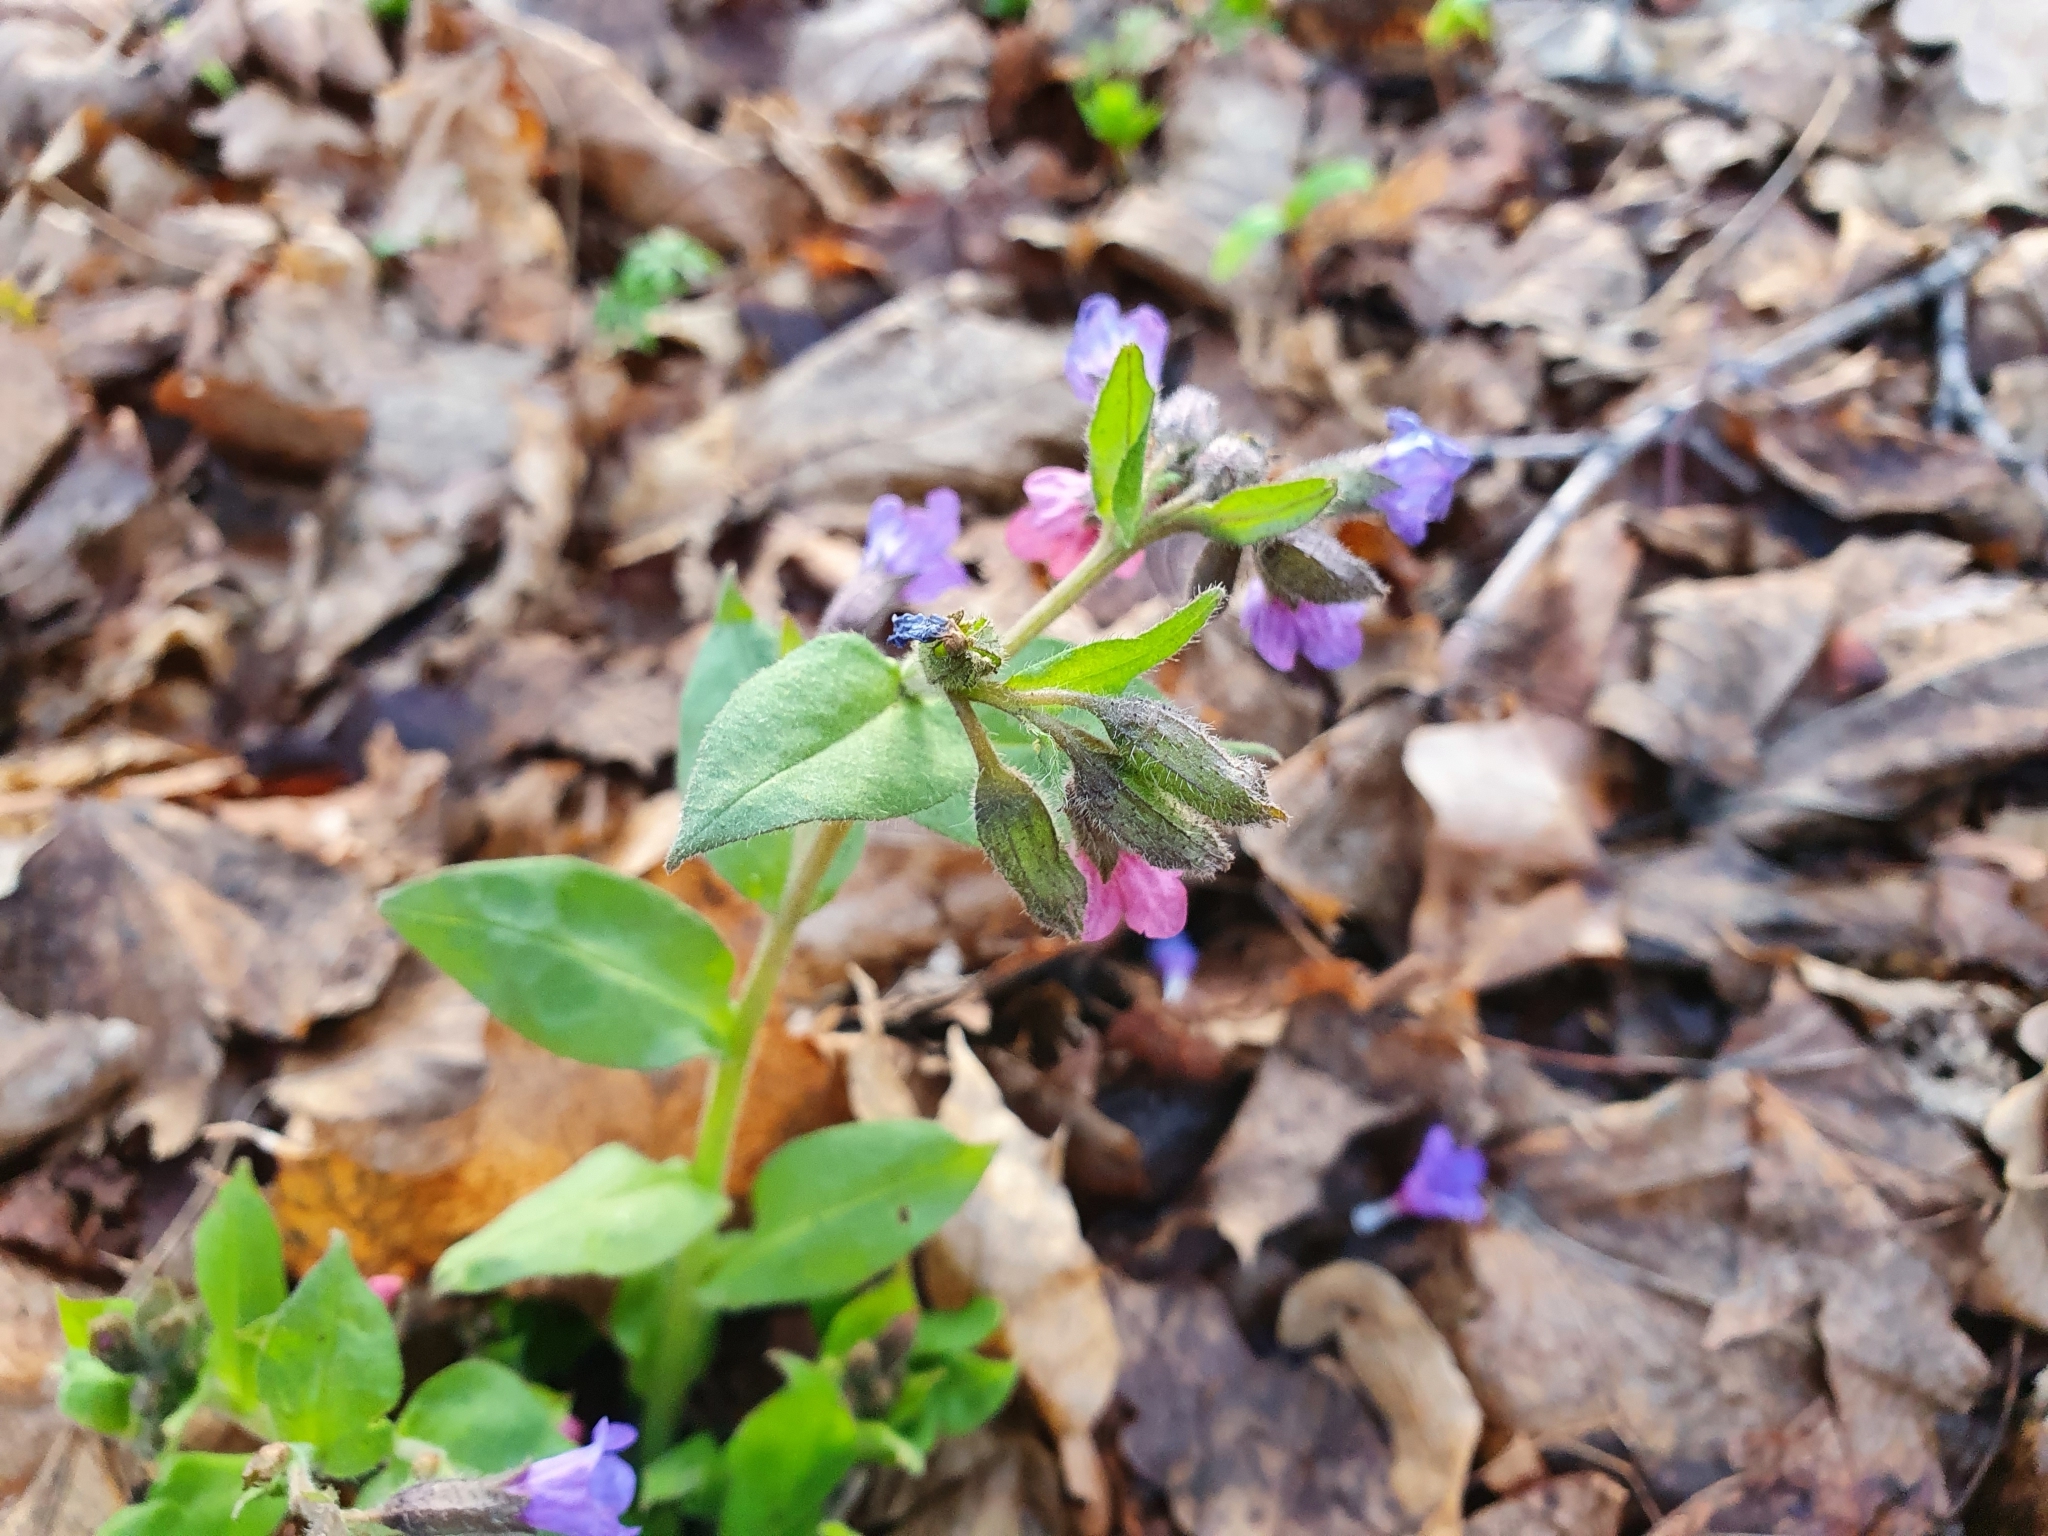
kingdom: Plantae
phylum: Tracheophyta
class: Magnoliopsida
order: Boraginales
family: Boraginaceae
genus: Pulmonaria
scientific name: Pulmonaria obscura
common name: Suffolk lungwort
